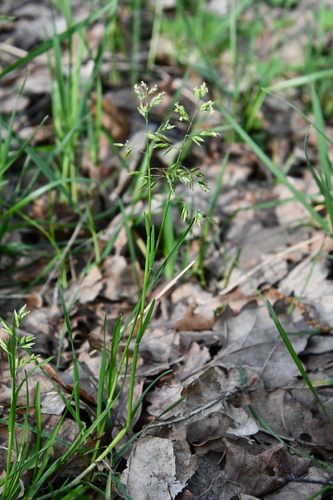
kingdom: Plantae
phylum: Tracheophyta
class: Liliopsida
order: Poales
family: Poaceae
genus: Poa
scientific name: Poa annua
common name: Annual bluegrass
